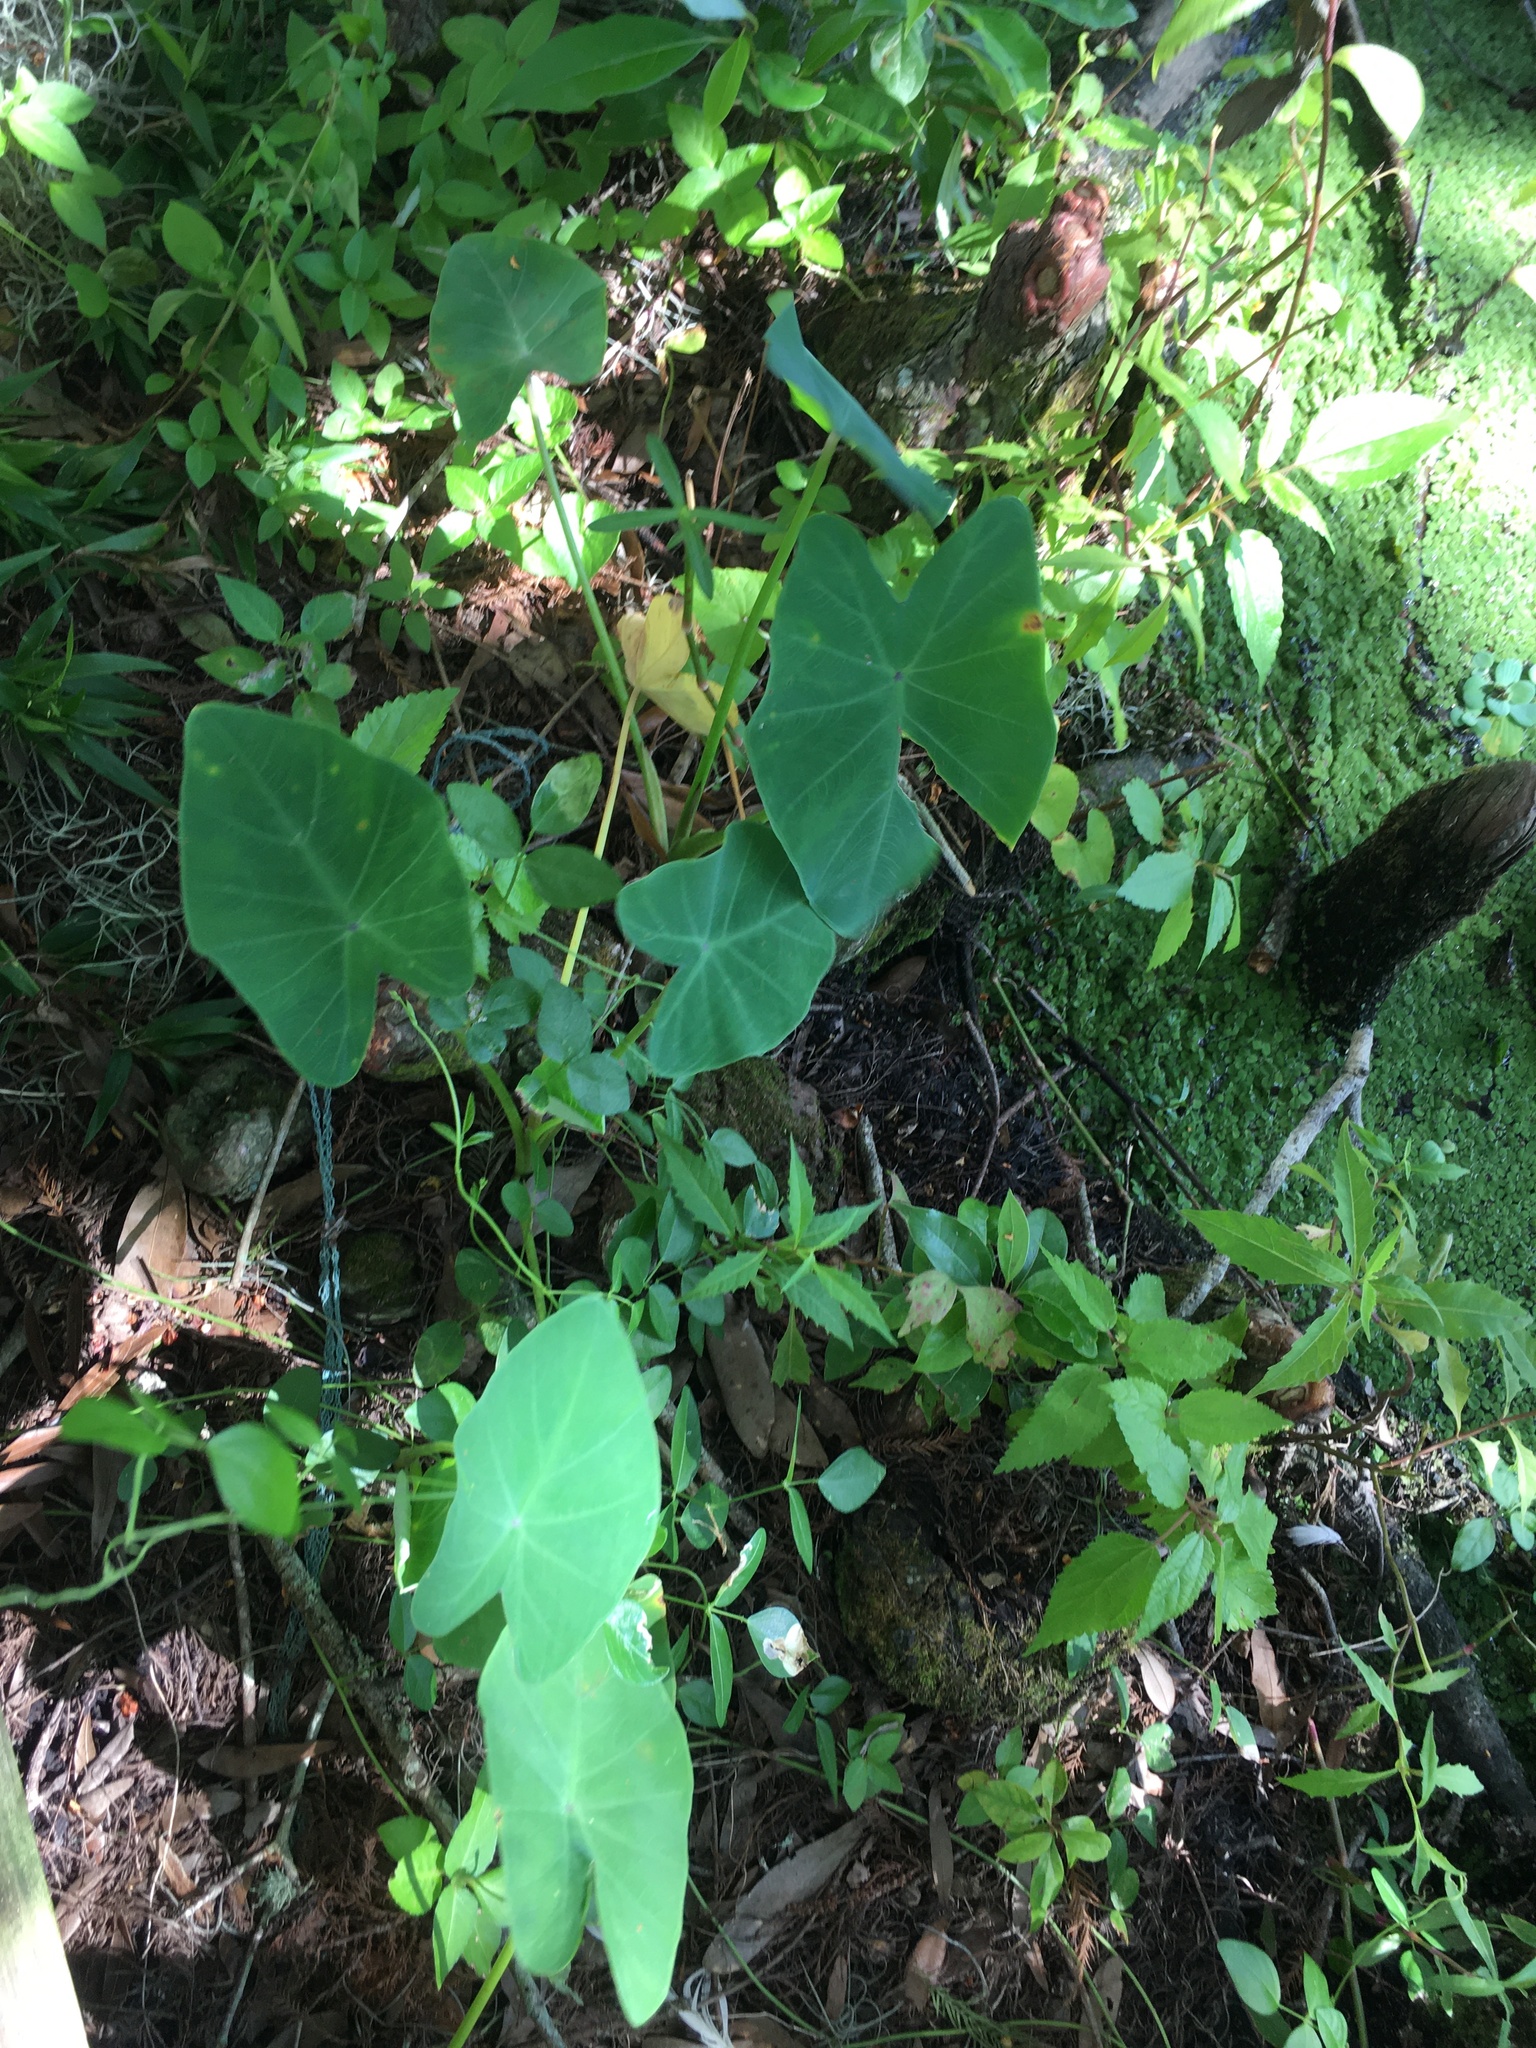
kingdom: Plantae
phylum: Tracheophyta
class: Liliopsida
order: Alismatales
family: Araceae
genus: Colocasia
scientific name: Colocasia esculenta
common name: Taro
